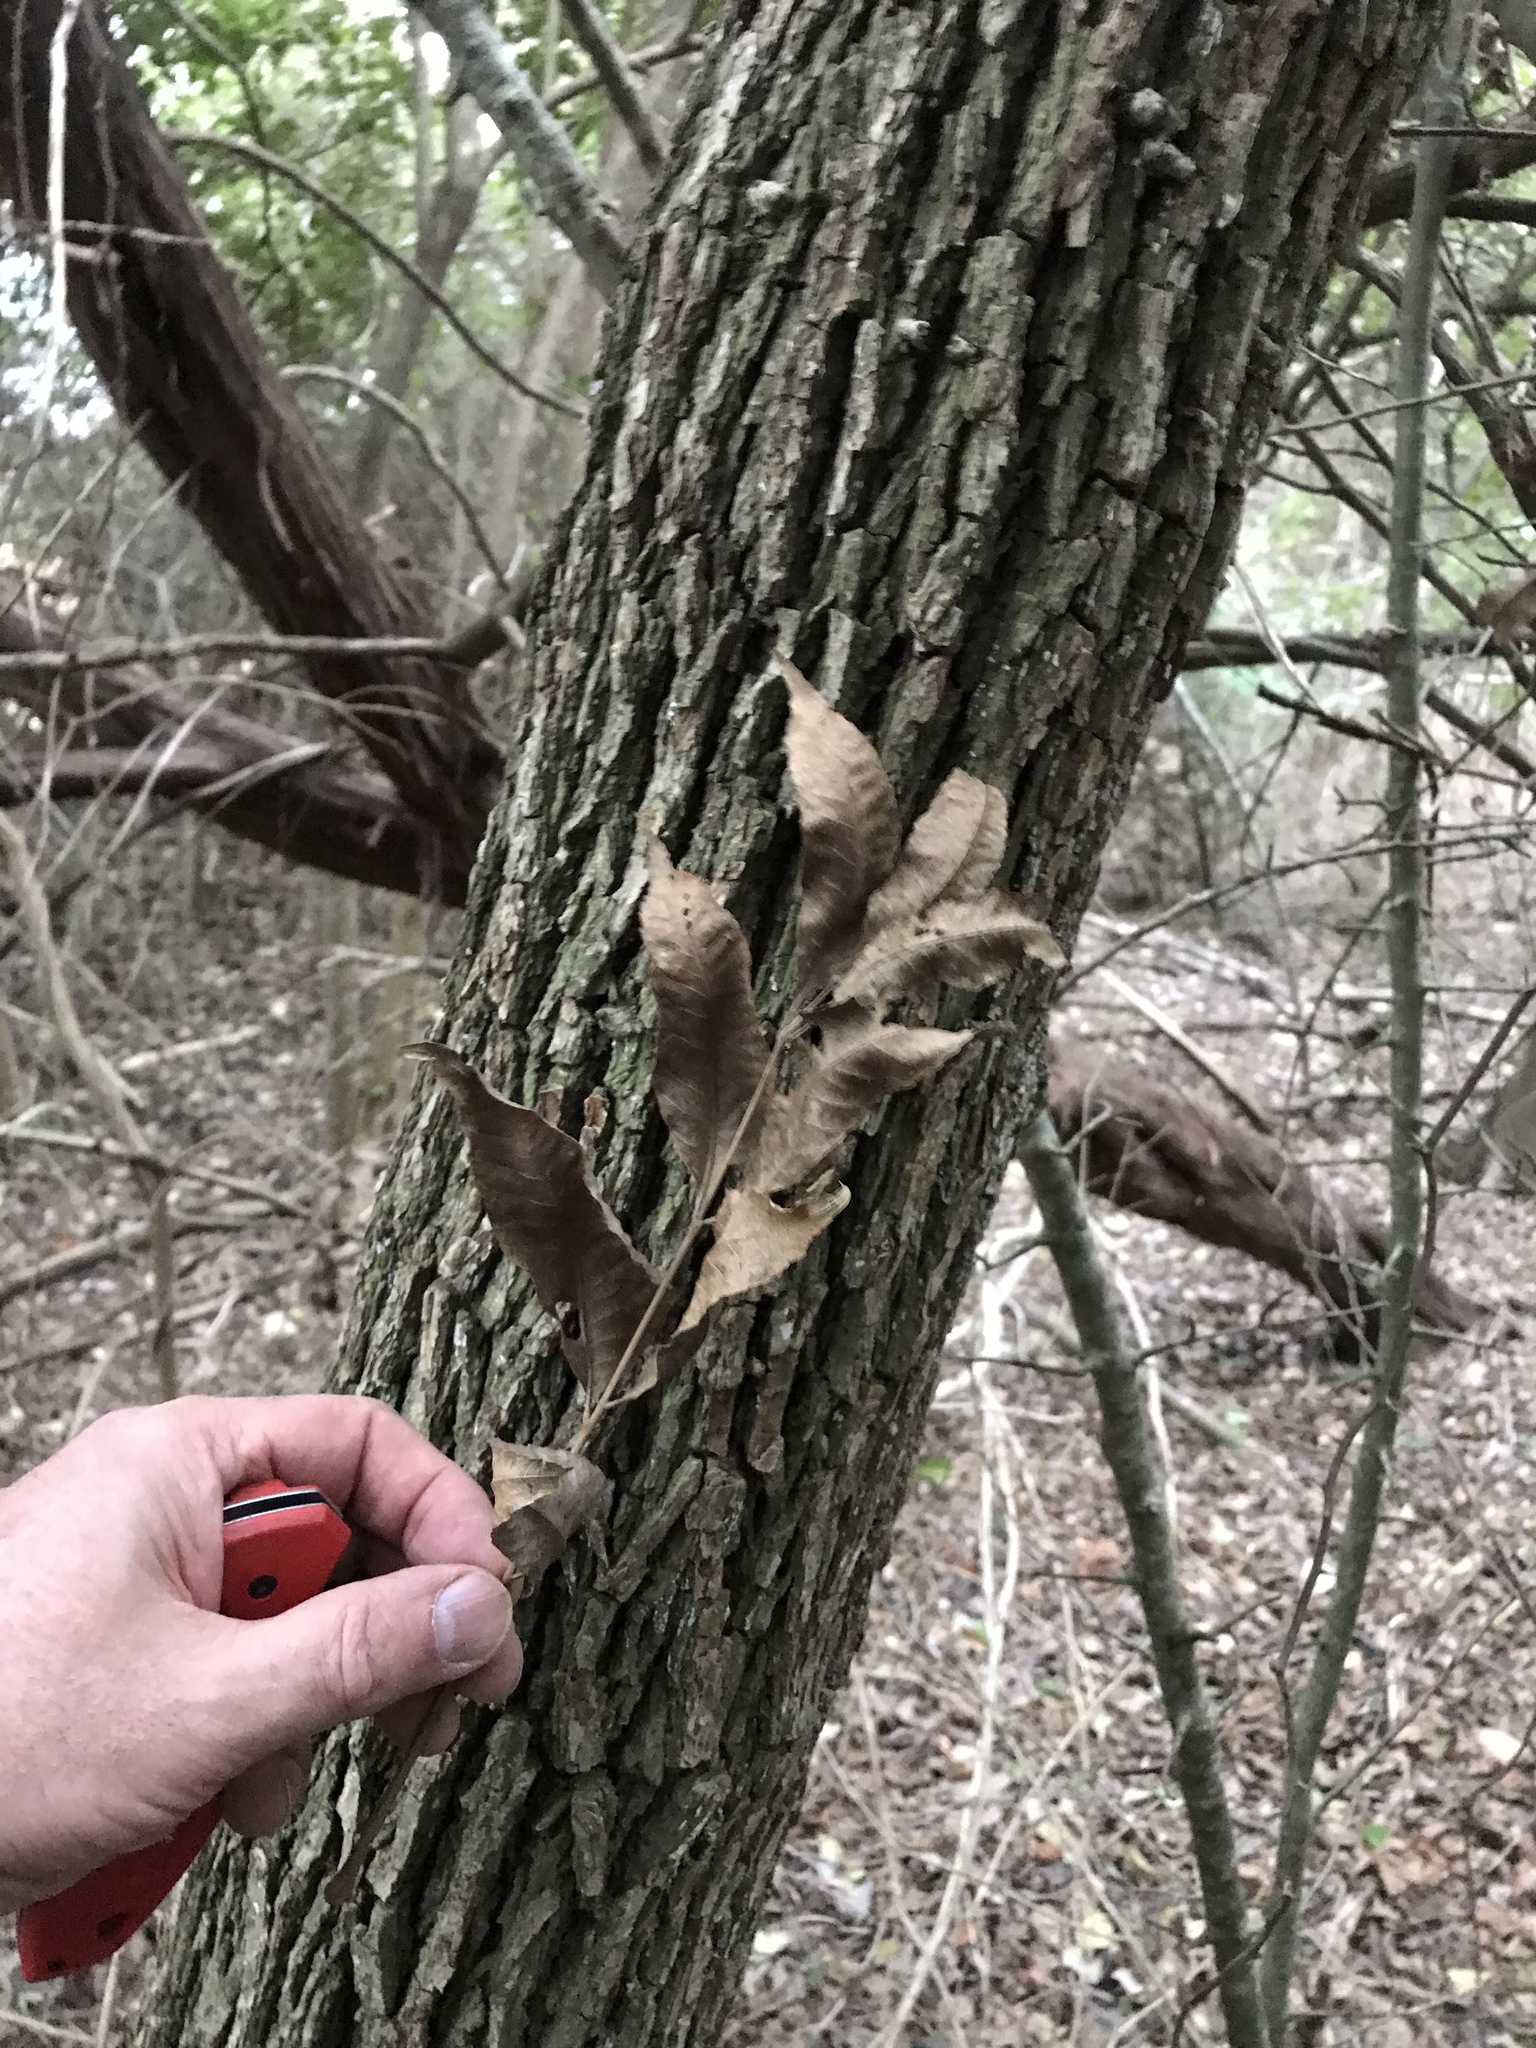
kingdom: Plantae
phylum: Tracheophyta
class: Magnoliopsida
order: Fagales
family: Juglandaceae
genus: Carya
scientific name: Carya illinoinensis
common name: Pecan
